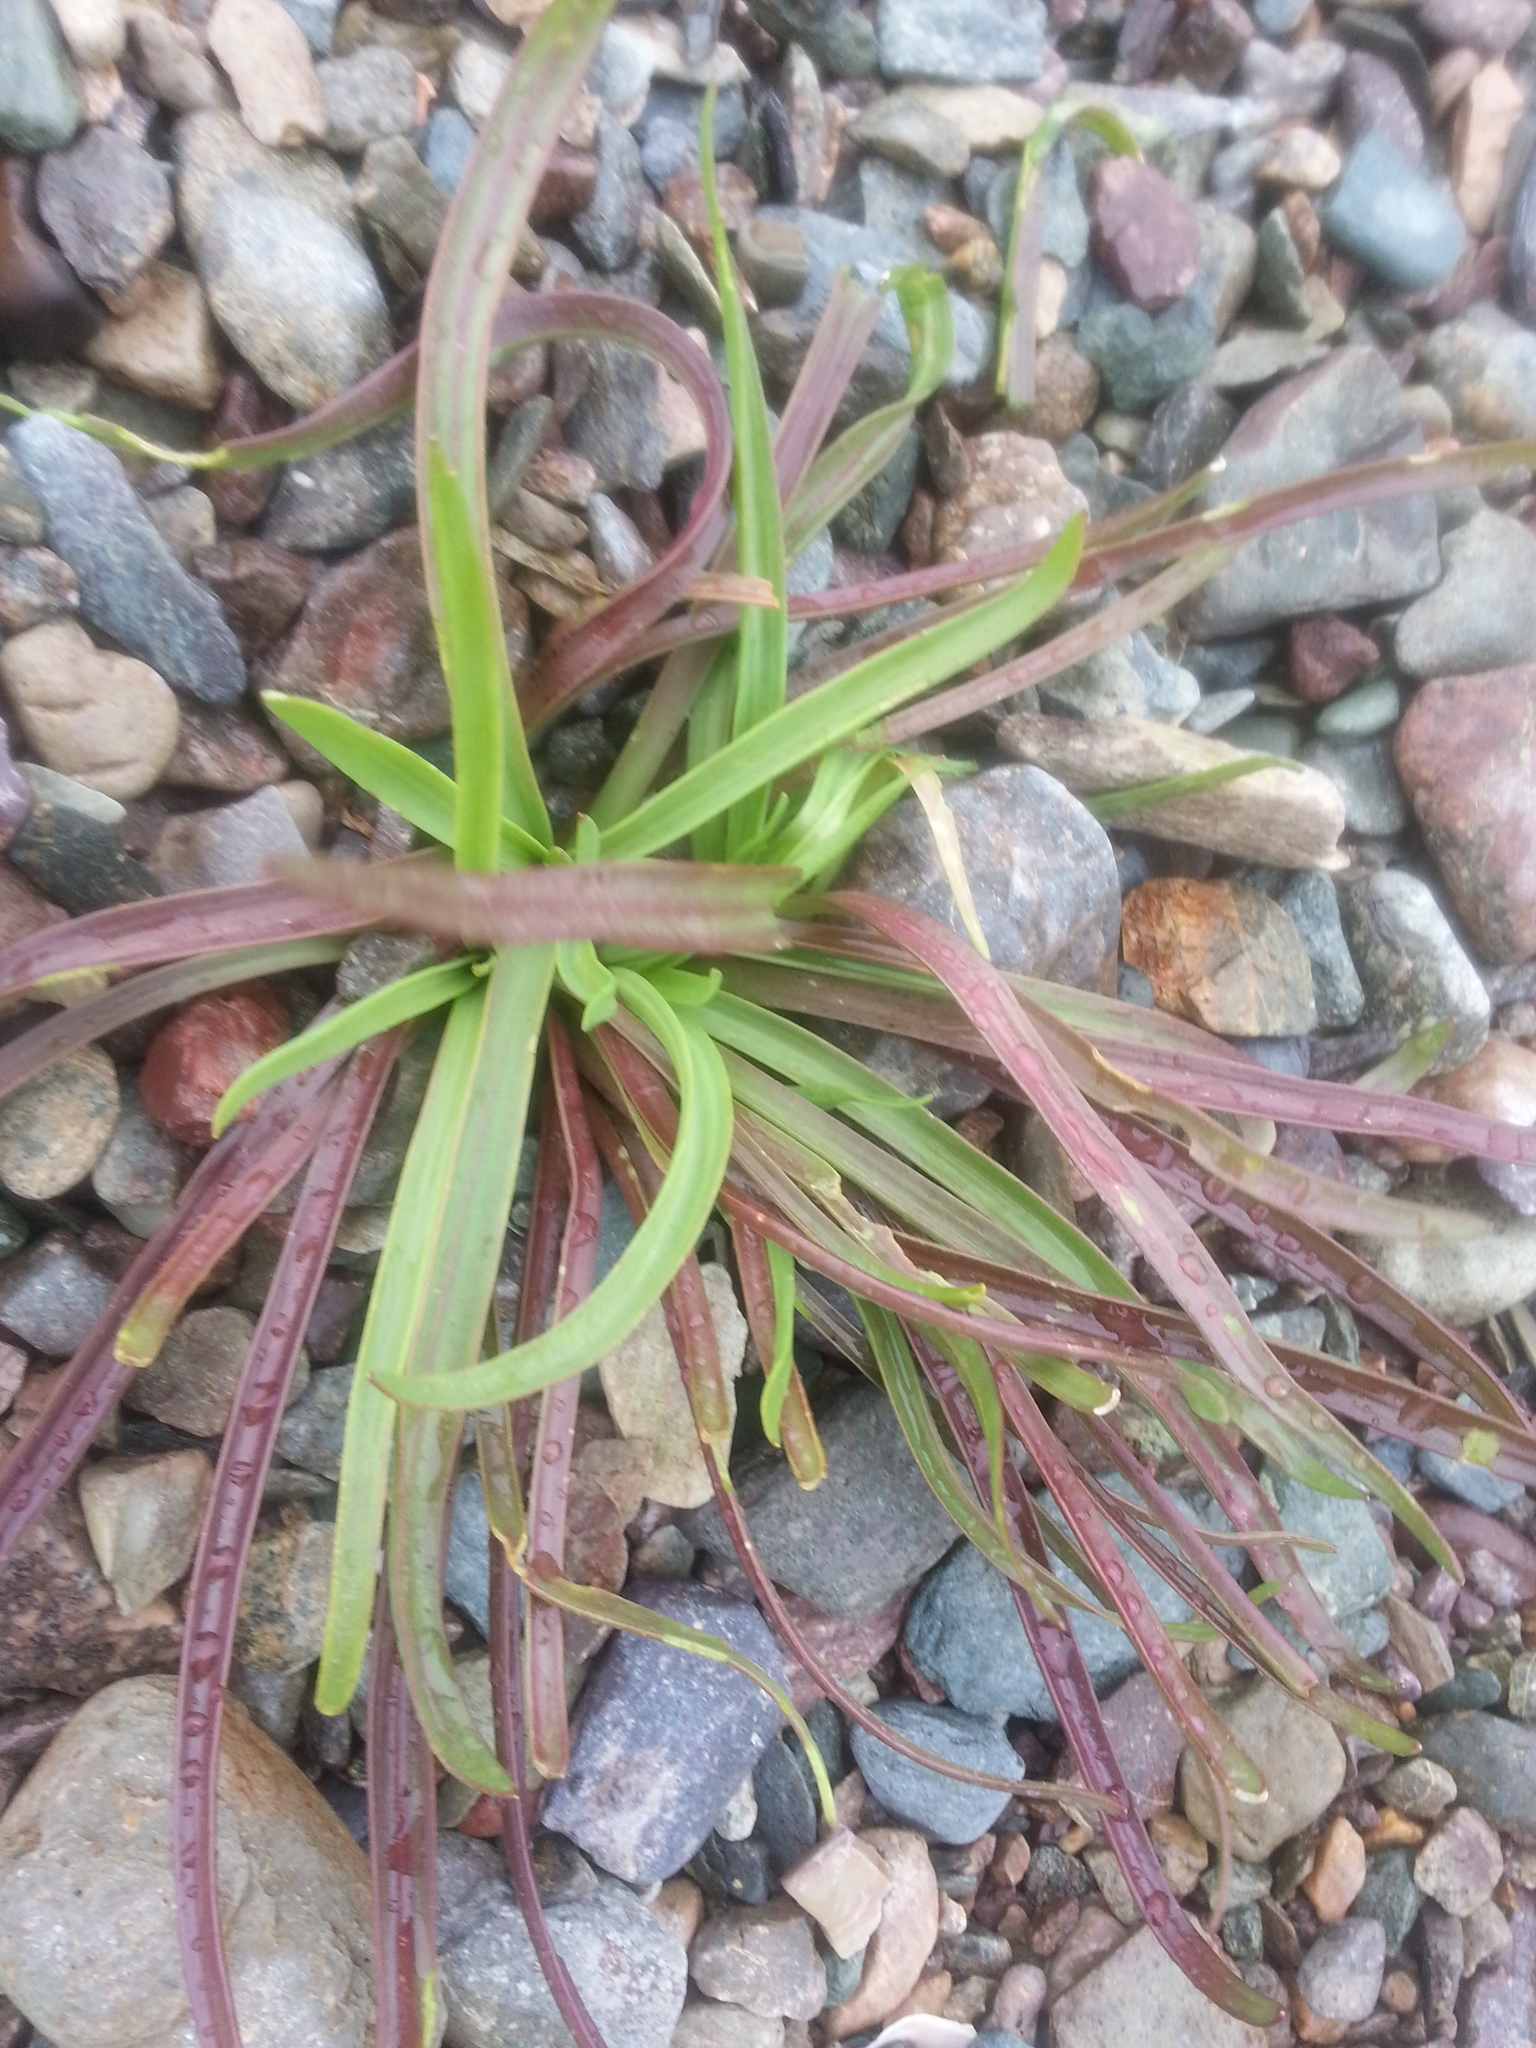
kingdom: Plantae
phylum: Tracheophyta
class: Magnoliopsida
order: Lamiales
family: Plantaginaceae
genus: Plantago
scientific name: Plantago maritima
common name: Sea plantain
